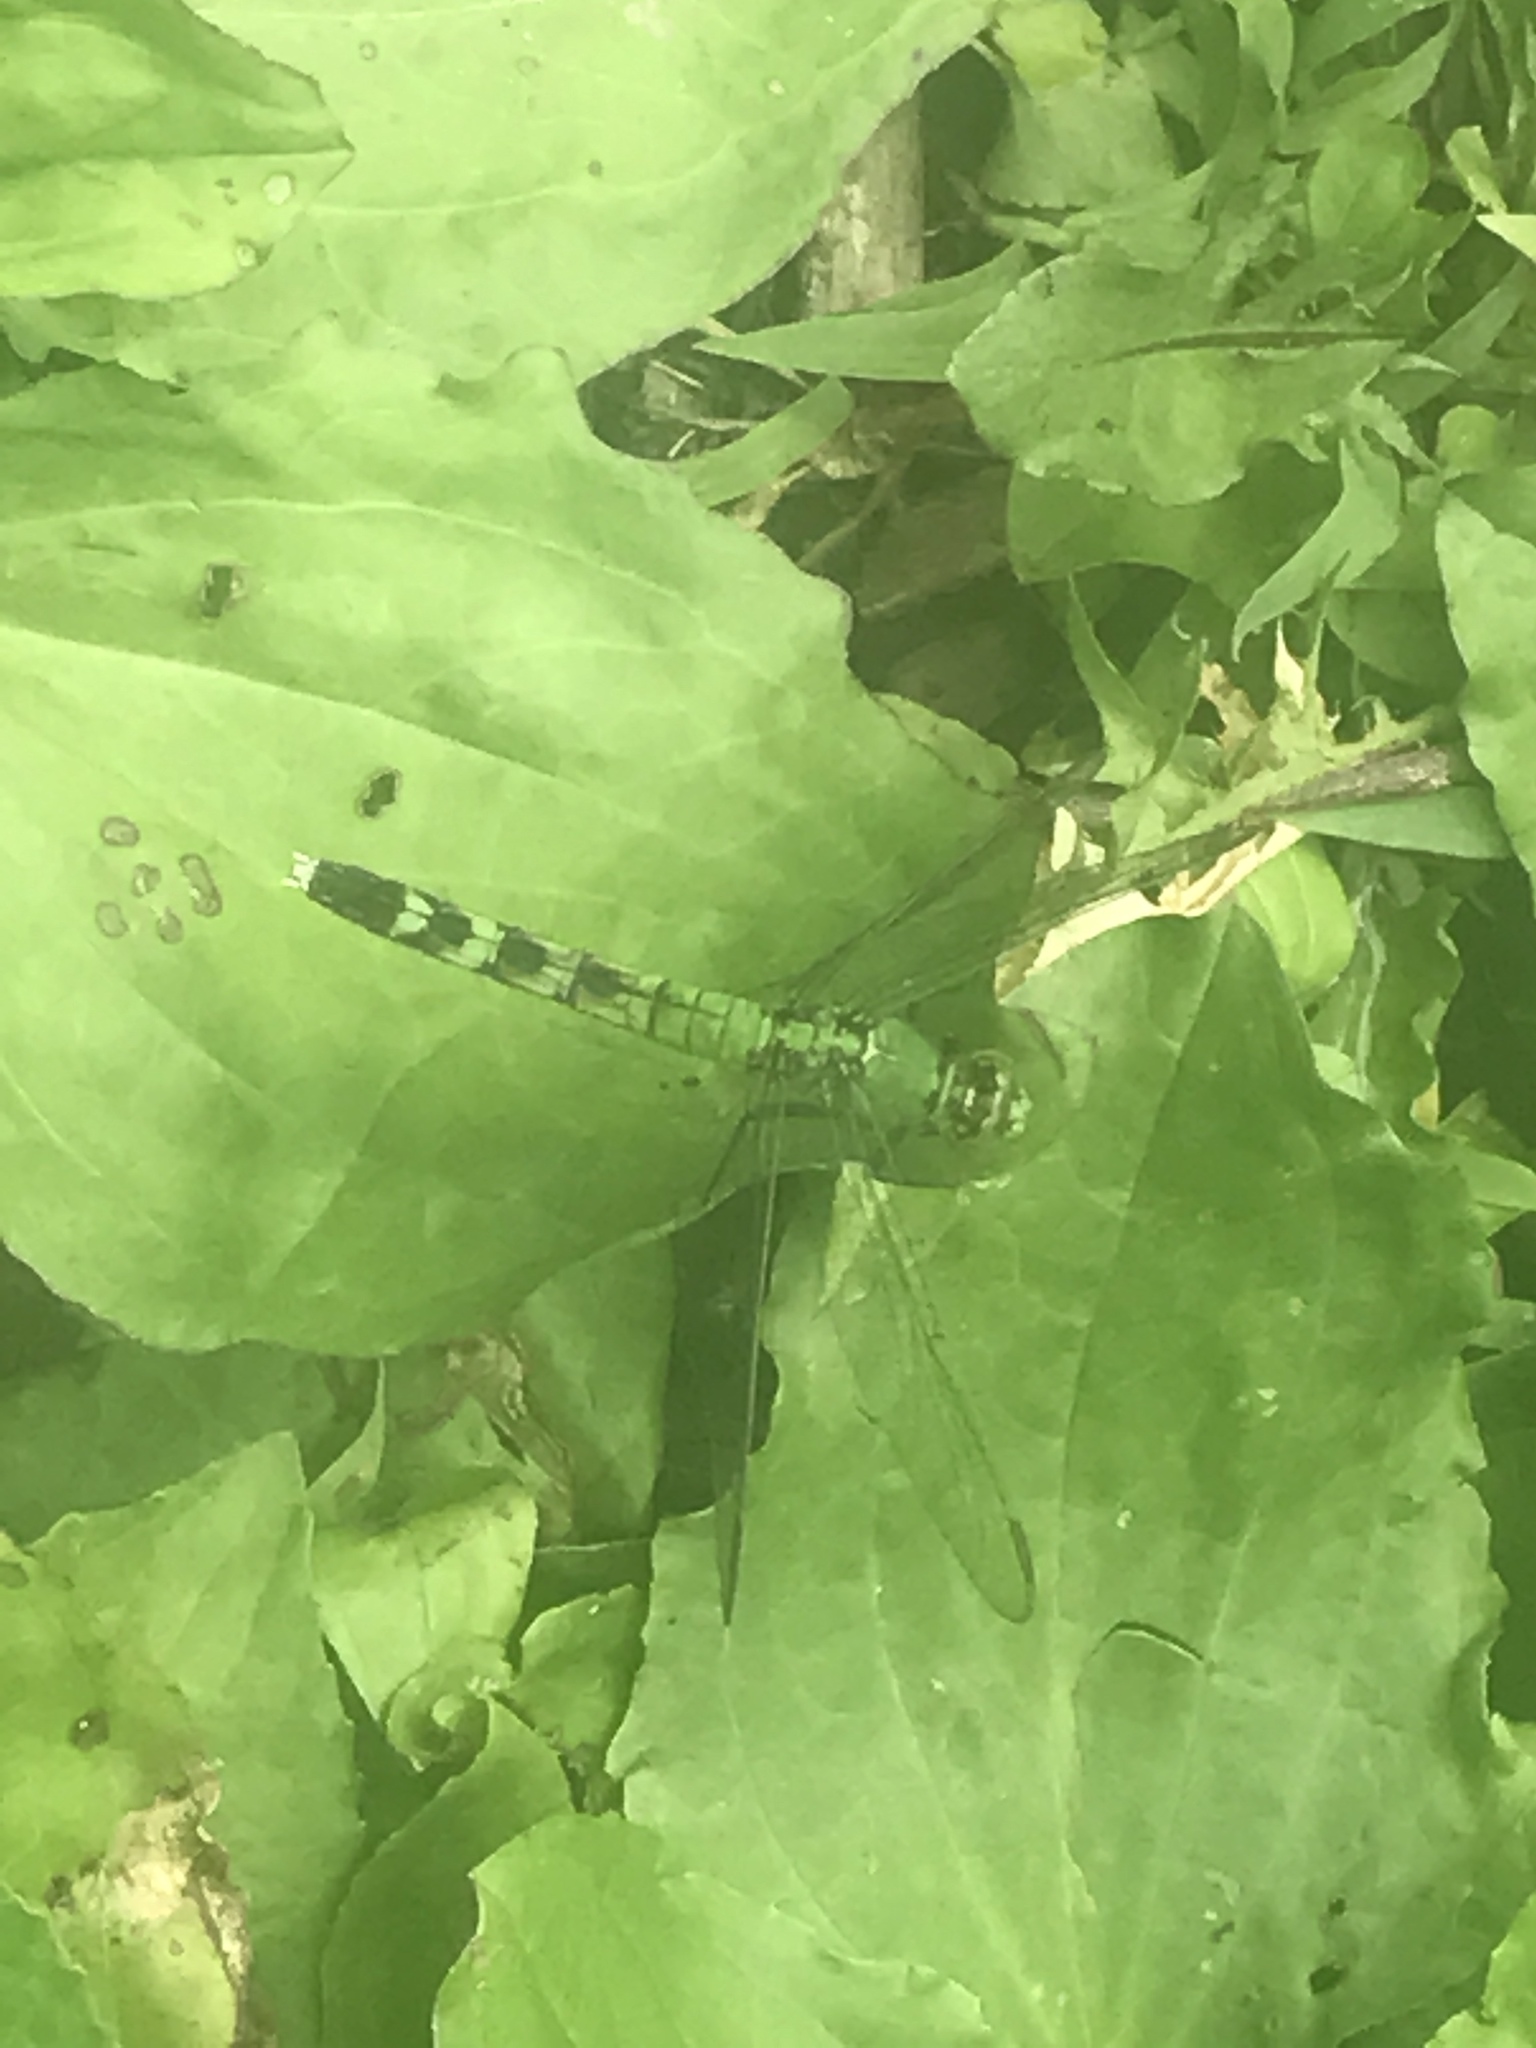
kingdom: Animalia
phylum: Arthropoda
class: Insecta
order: Odonata
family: Libellulidae
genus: Erythemis
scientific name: Erythemis simplicicollis
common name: Eastern pondhawk
